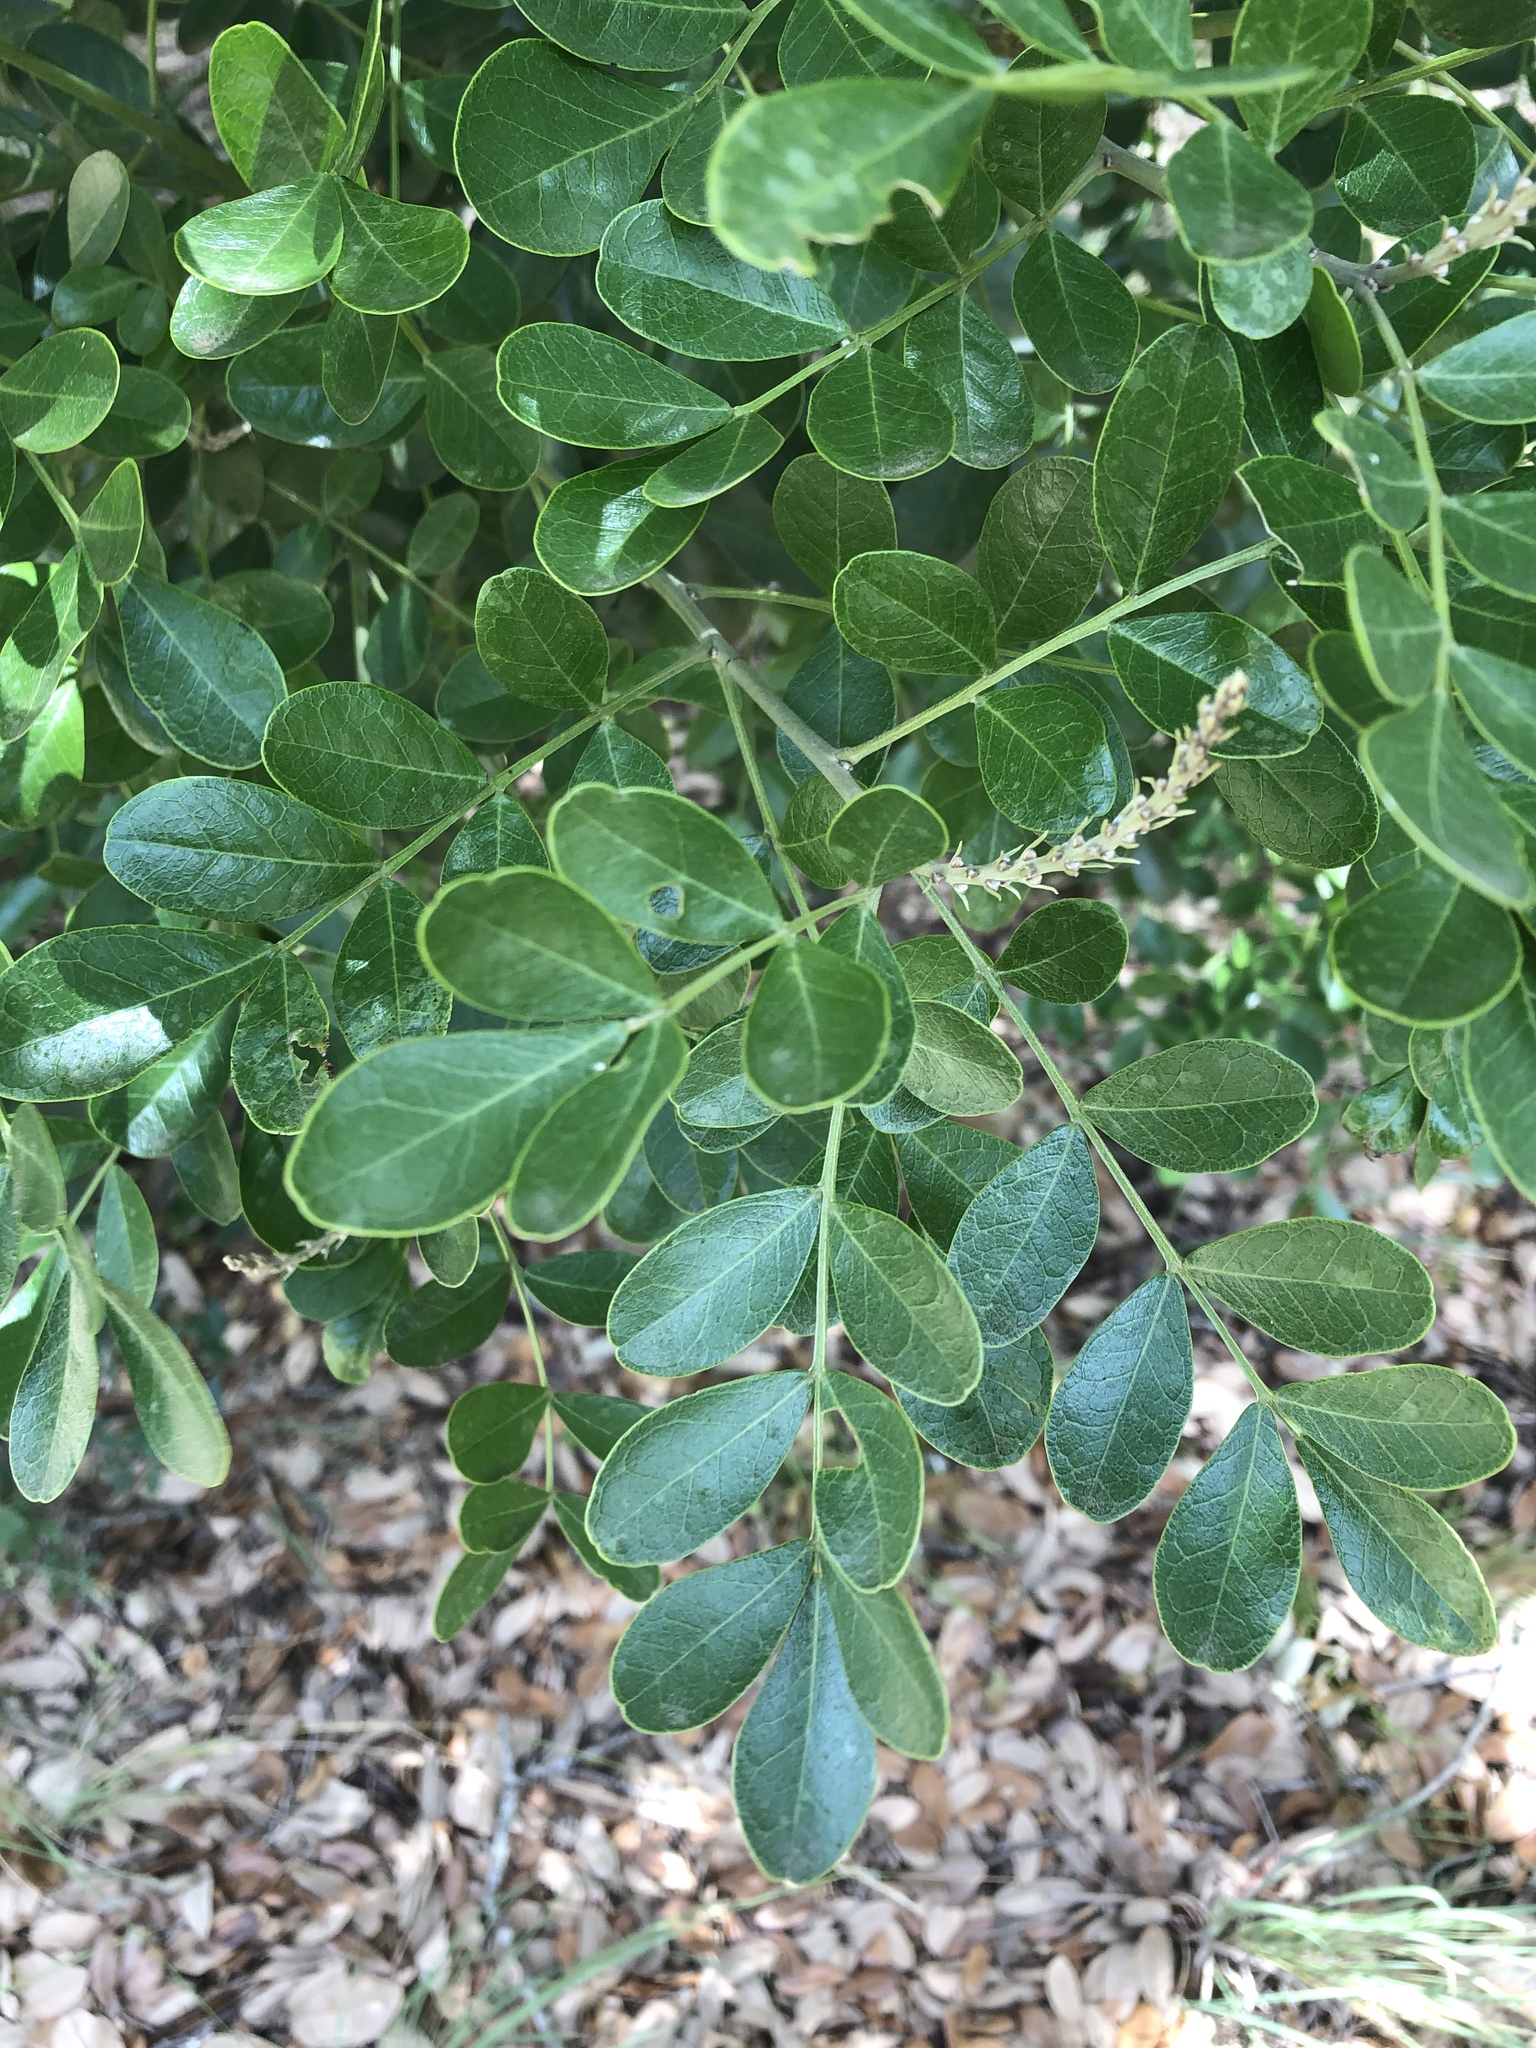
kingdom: Plantae
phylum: Tracheophyta
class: Magnoliopsida
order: Fabales
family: Fabaceae
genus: Dermatophyllum
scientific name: Dermatophyllum secundiflorum
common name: Texas-mountain-laurel
